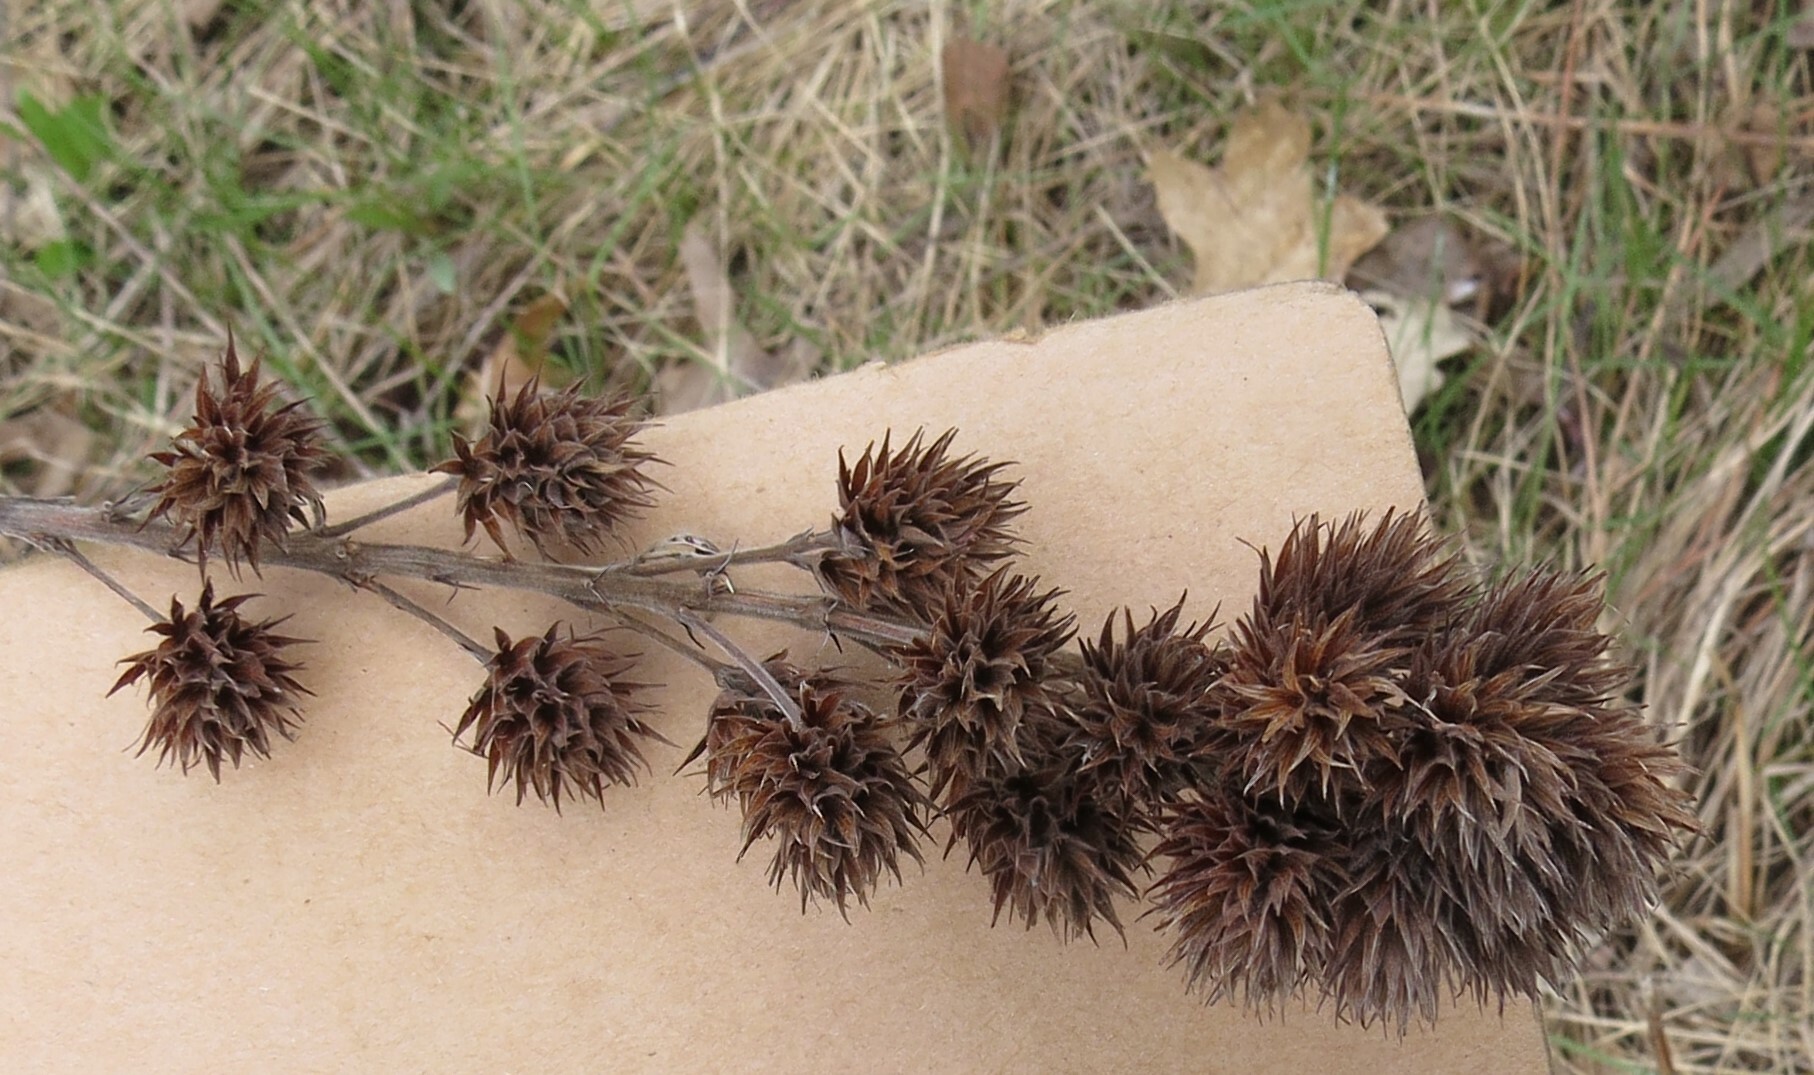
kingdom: Plantae
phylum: Tracheophyta
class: Magnoliopsida
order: Fabales
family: Fabaceae
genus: Lespedeza
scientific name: Lespedeza capitata
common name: Dusty clover
